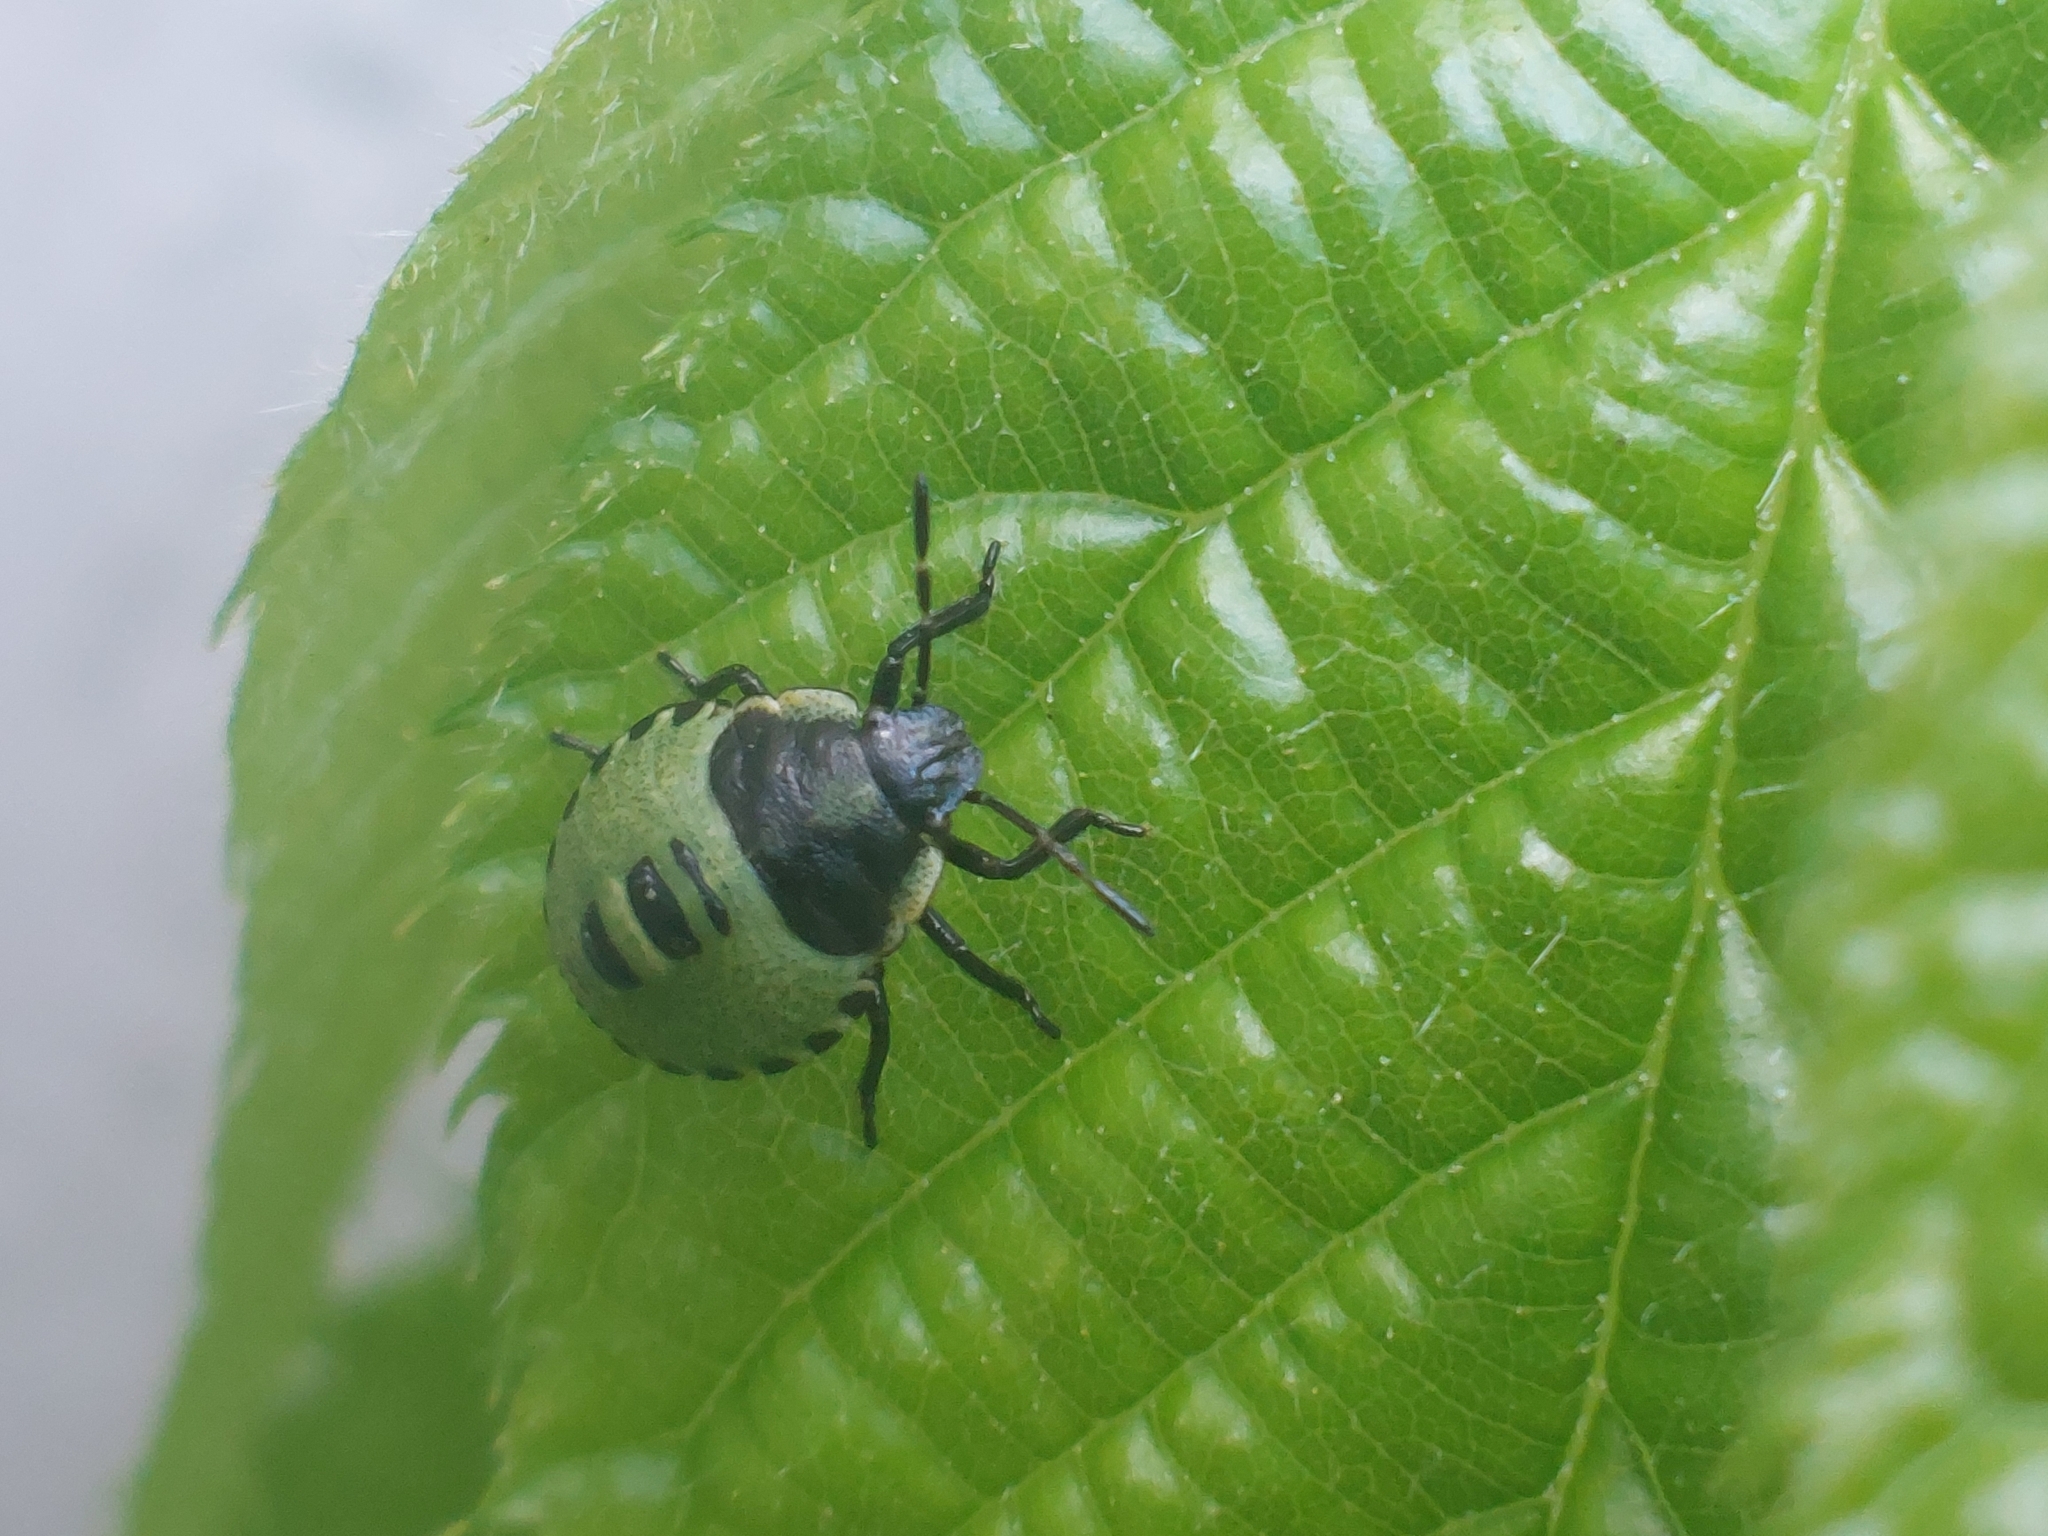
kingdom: Animalia
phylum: Arthropoda
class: Insecta
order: Hemiptera
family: Pentatomidae
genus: Palomena
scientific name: Palomena prasina
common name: Green shieldbug
